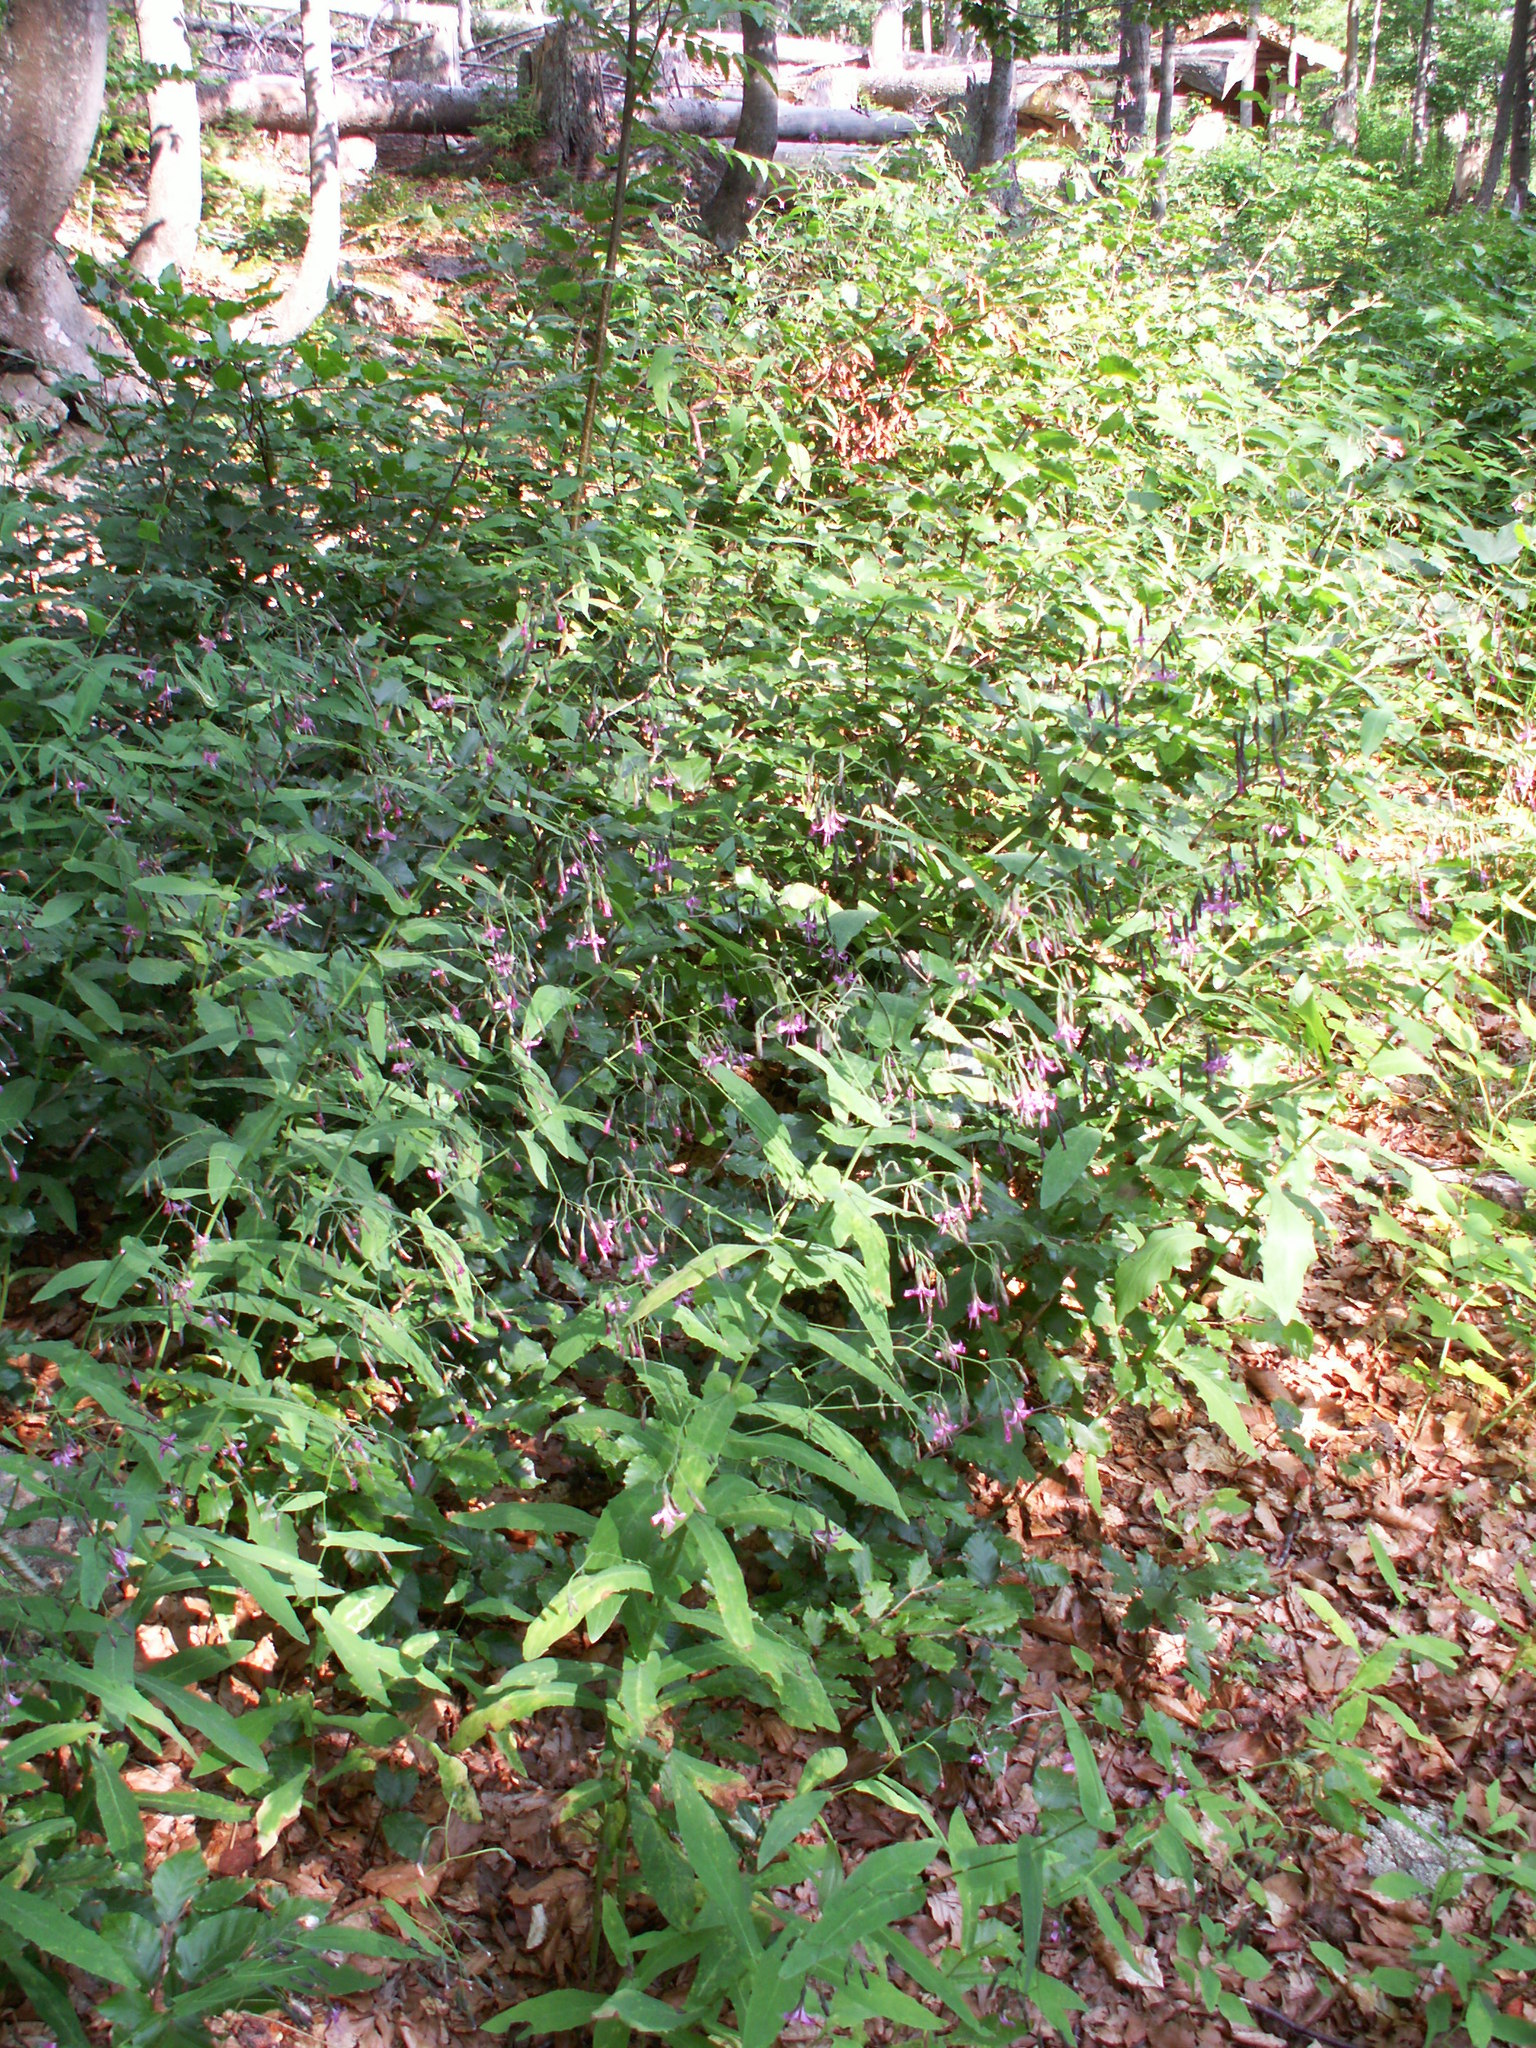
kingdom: Plantae
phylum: Tracheophyta
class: Magnoliopsida
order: Asterales
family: Asteraceae
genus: Prenanthes
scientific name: Prenanthes purpurea
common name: Purple lettuce
